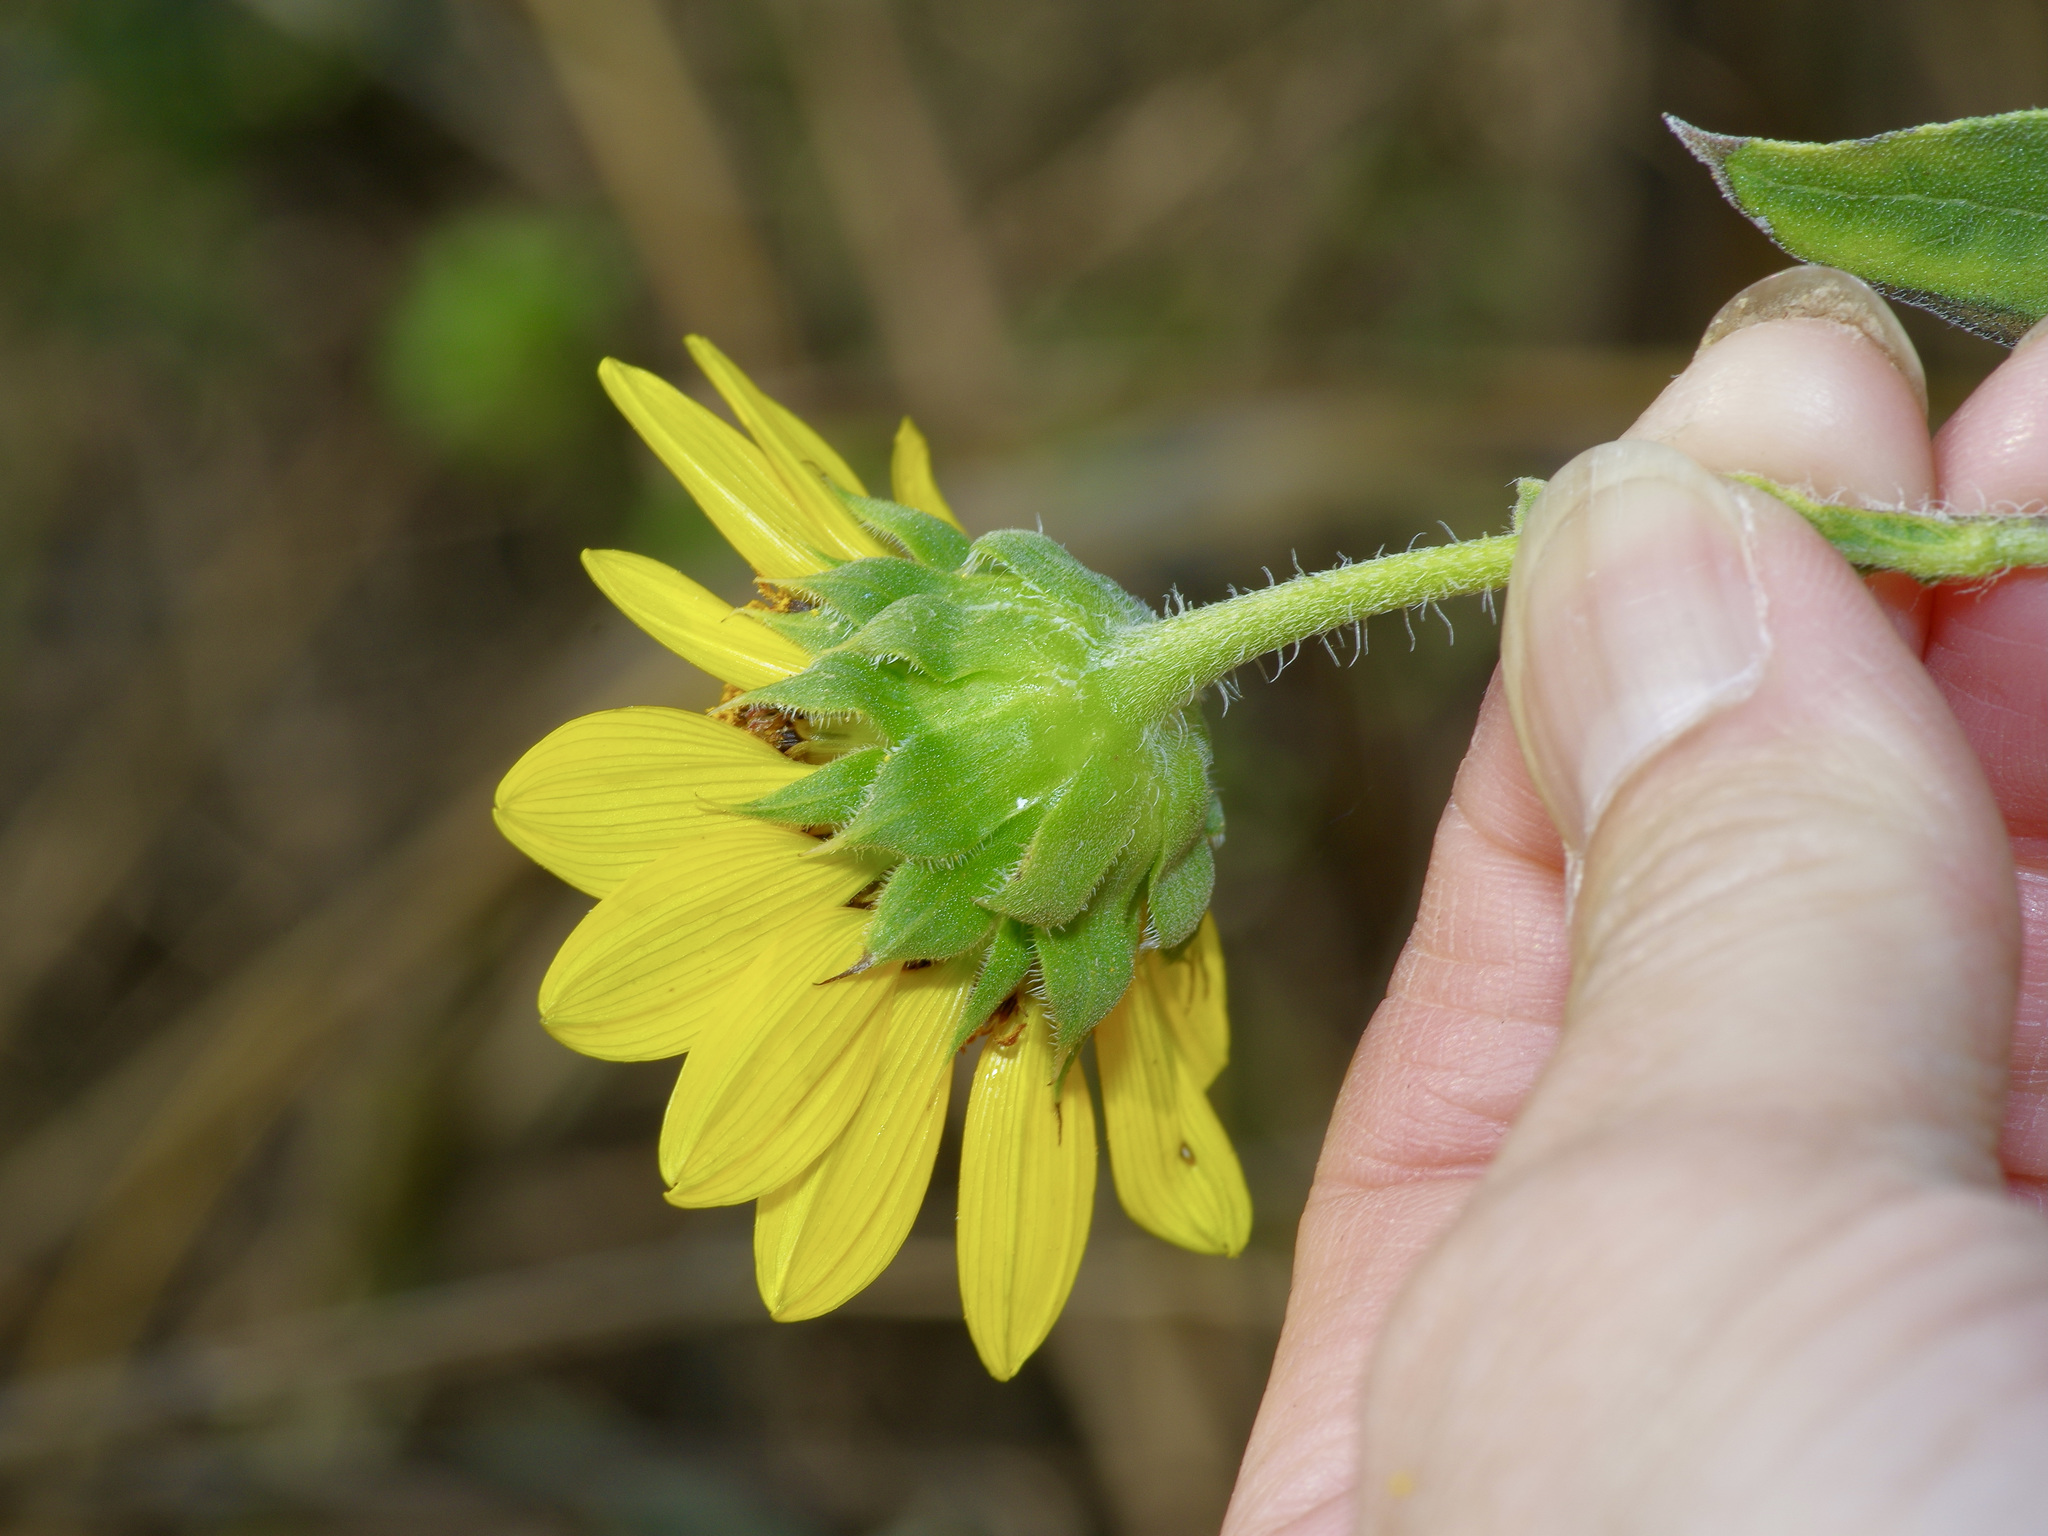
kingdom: Plantae
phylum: Tracheophyta
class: Magnoliopsida
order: Asterales
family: Asteraceae
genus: Helianthus
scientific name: Helianthus annuus
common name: Sunflower
